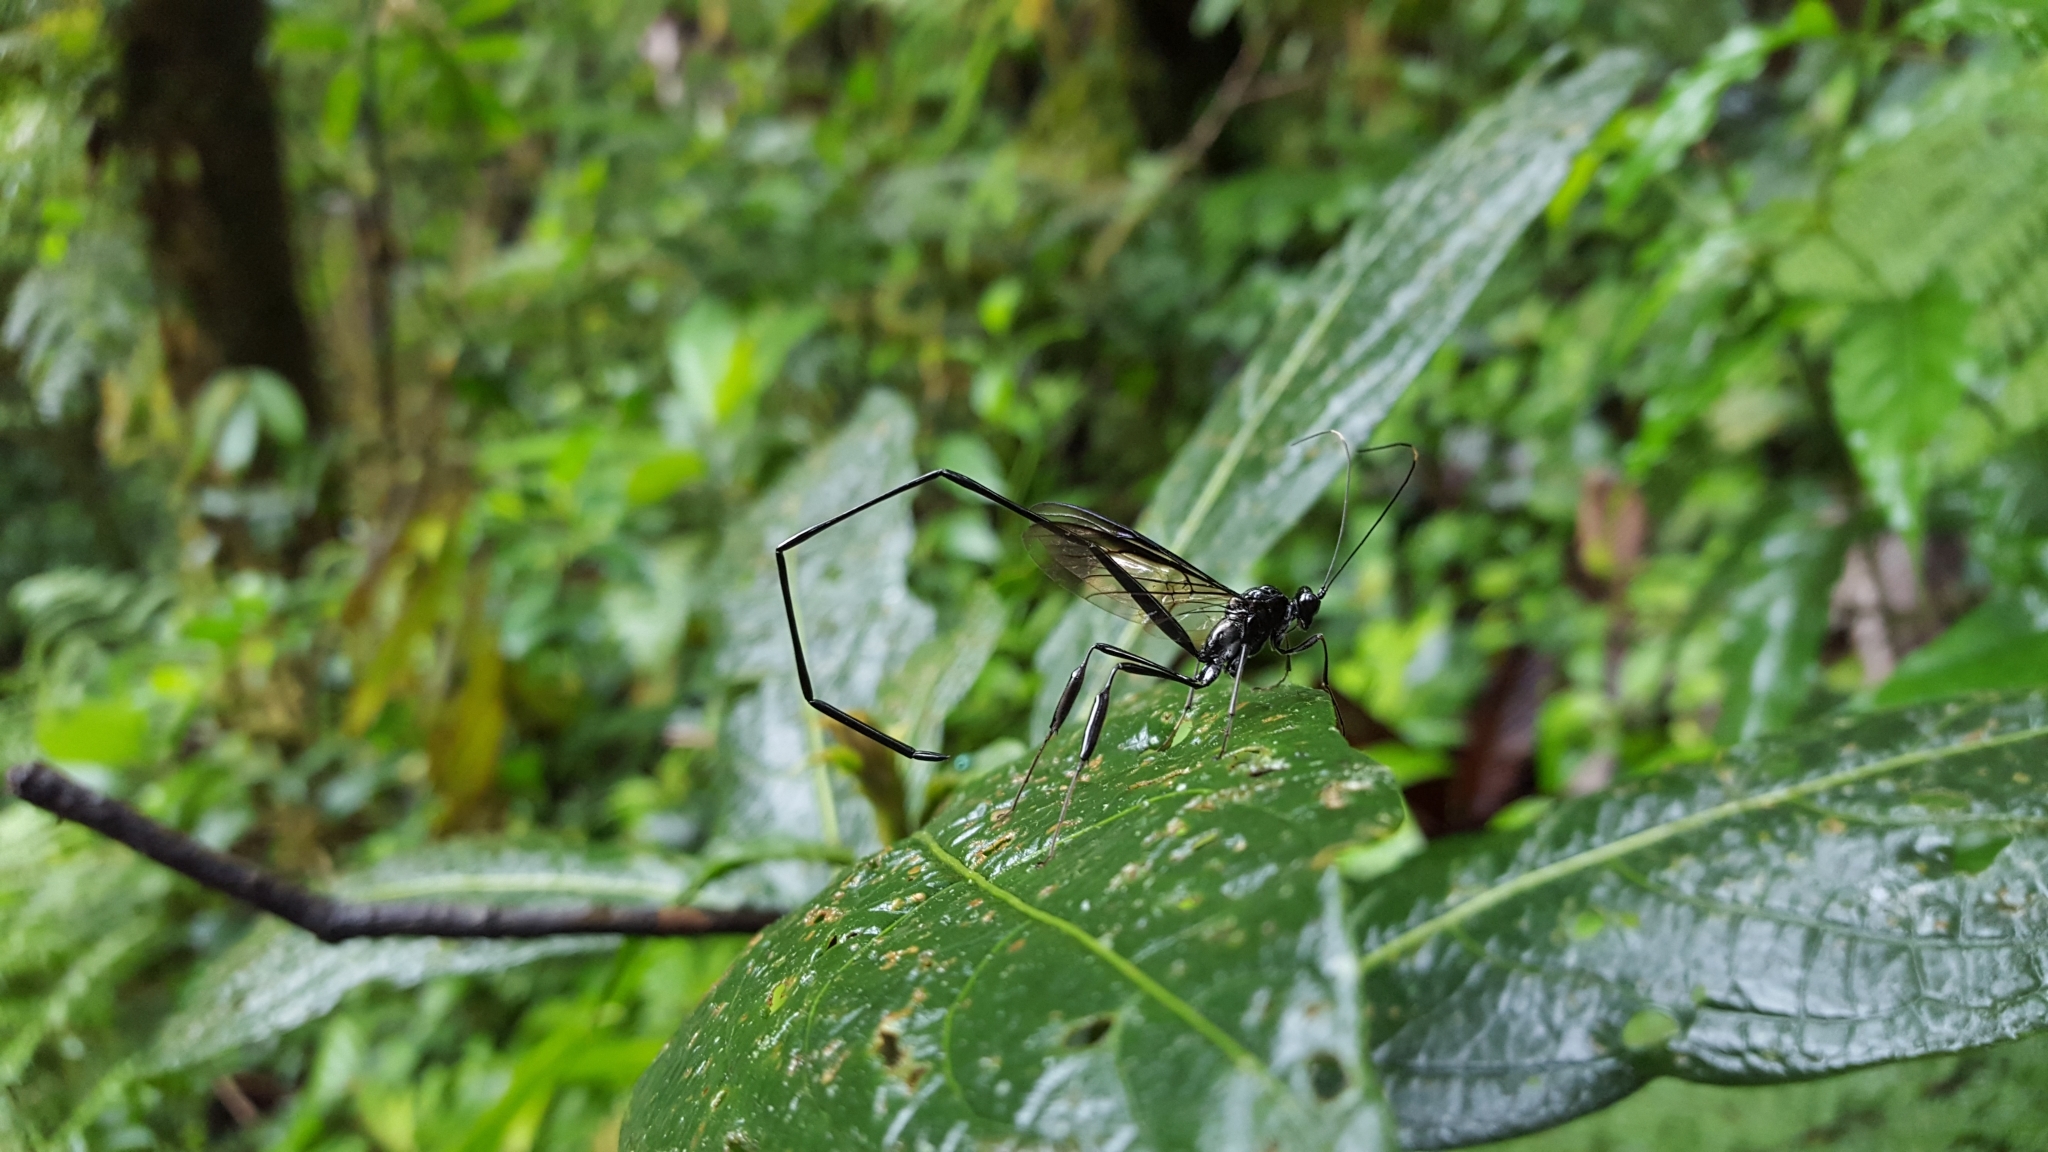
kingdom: Animalia
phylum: Arthropoda
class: Insecta
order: Hymenoptera
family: Pelecinidae
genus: Pelecinus
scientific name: Pelecinus polyturator
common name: American pelecinid wasp
